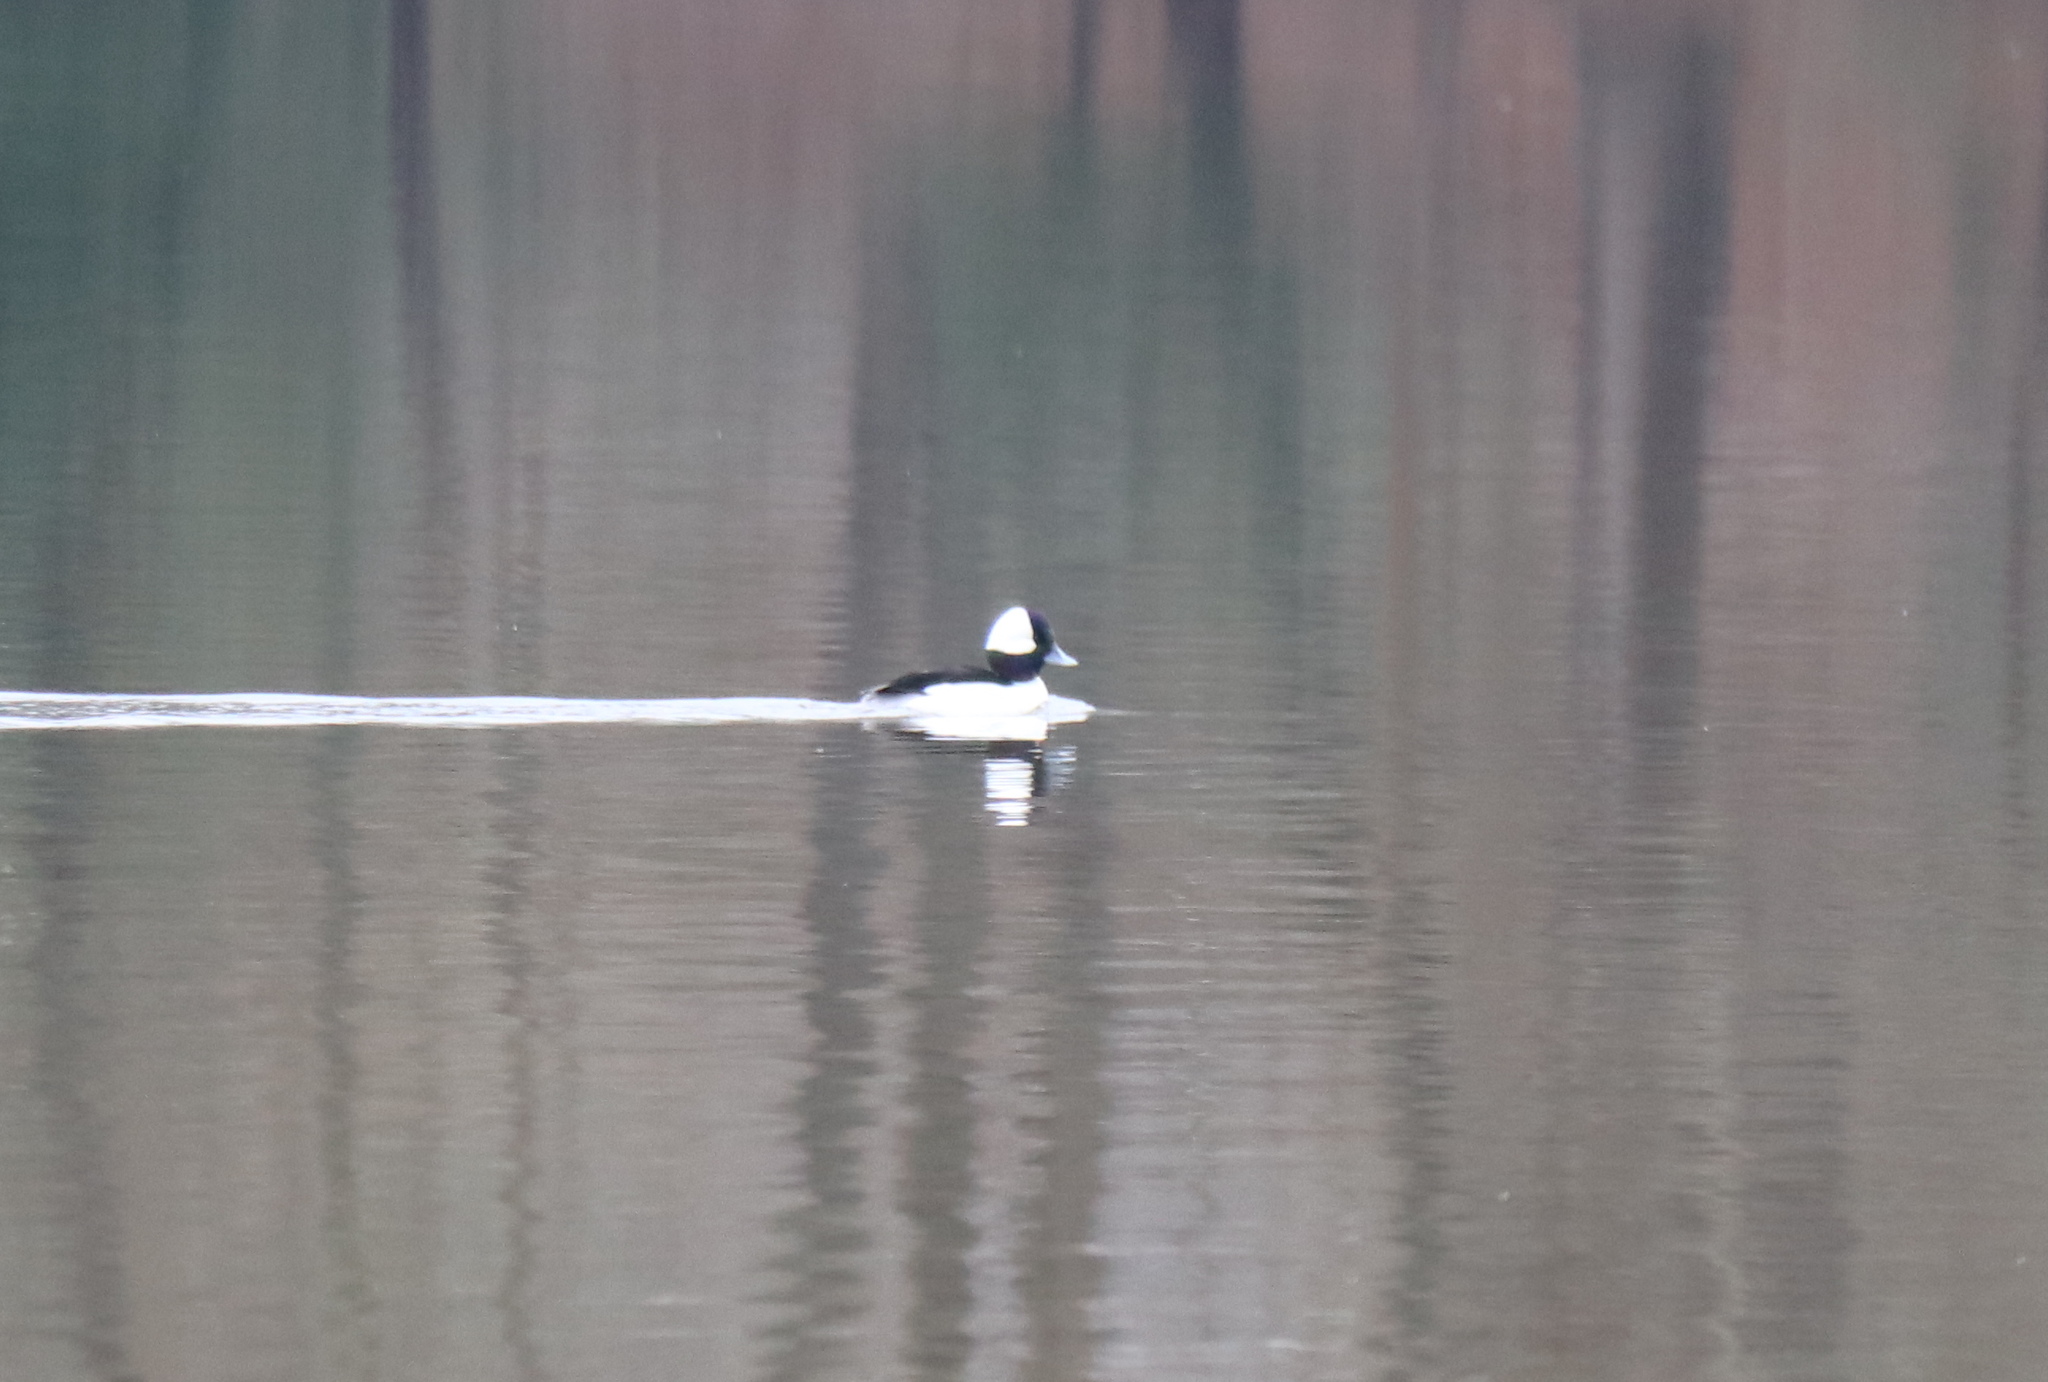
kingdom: Animalia
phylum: Chordata
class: Aves
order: Anseriformes
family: Anatidae
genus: Bucephala
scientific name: Bucephala albeola
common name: Bufflehead
